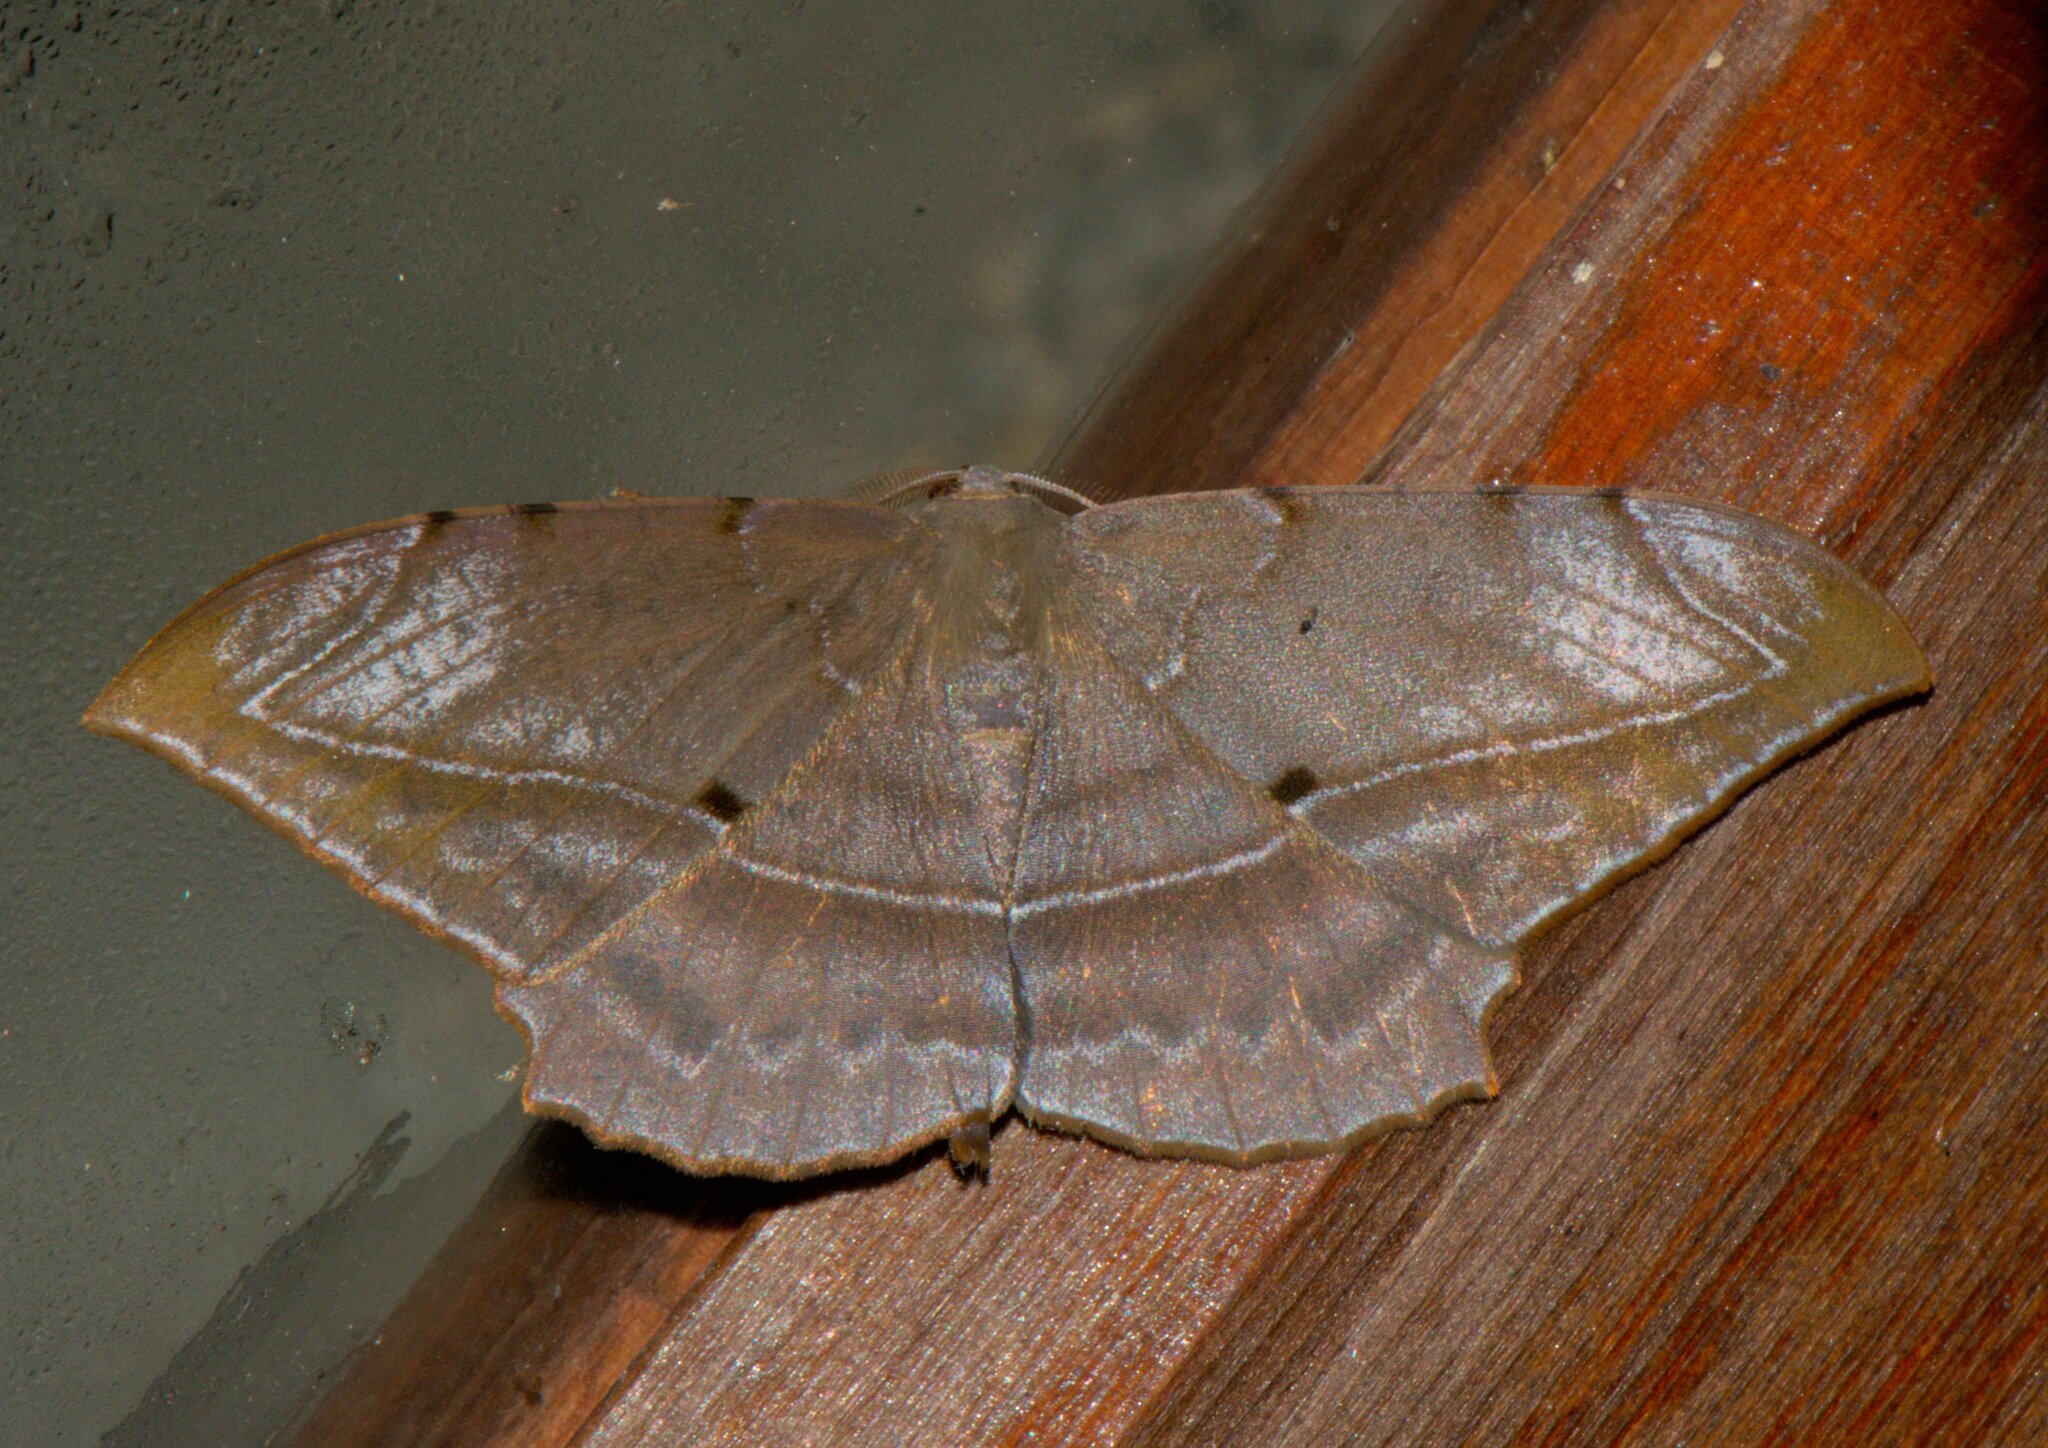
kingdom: Animalia
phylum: Arthropoda
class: Insecta
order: Lepidoptera
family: Geometridae
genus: Dalima
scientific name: Dalima schistacearia
